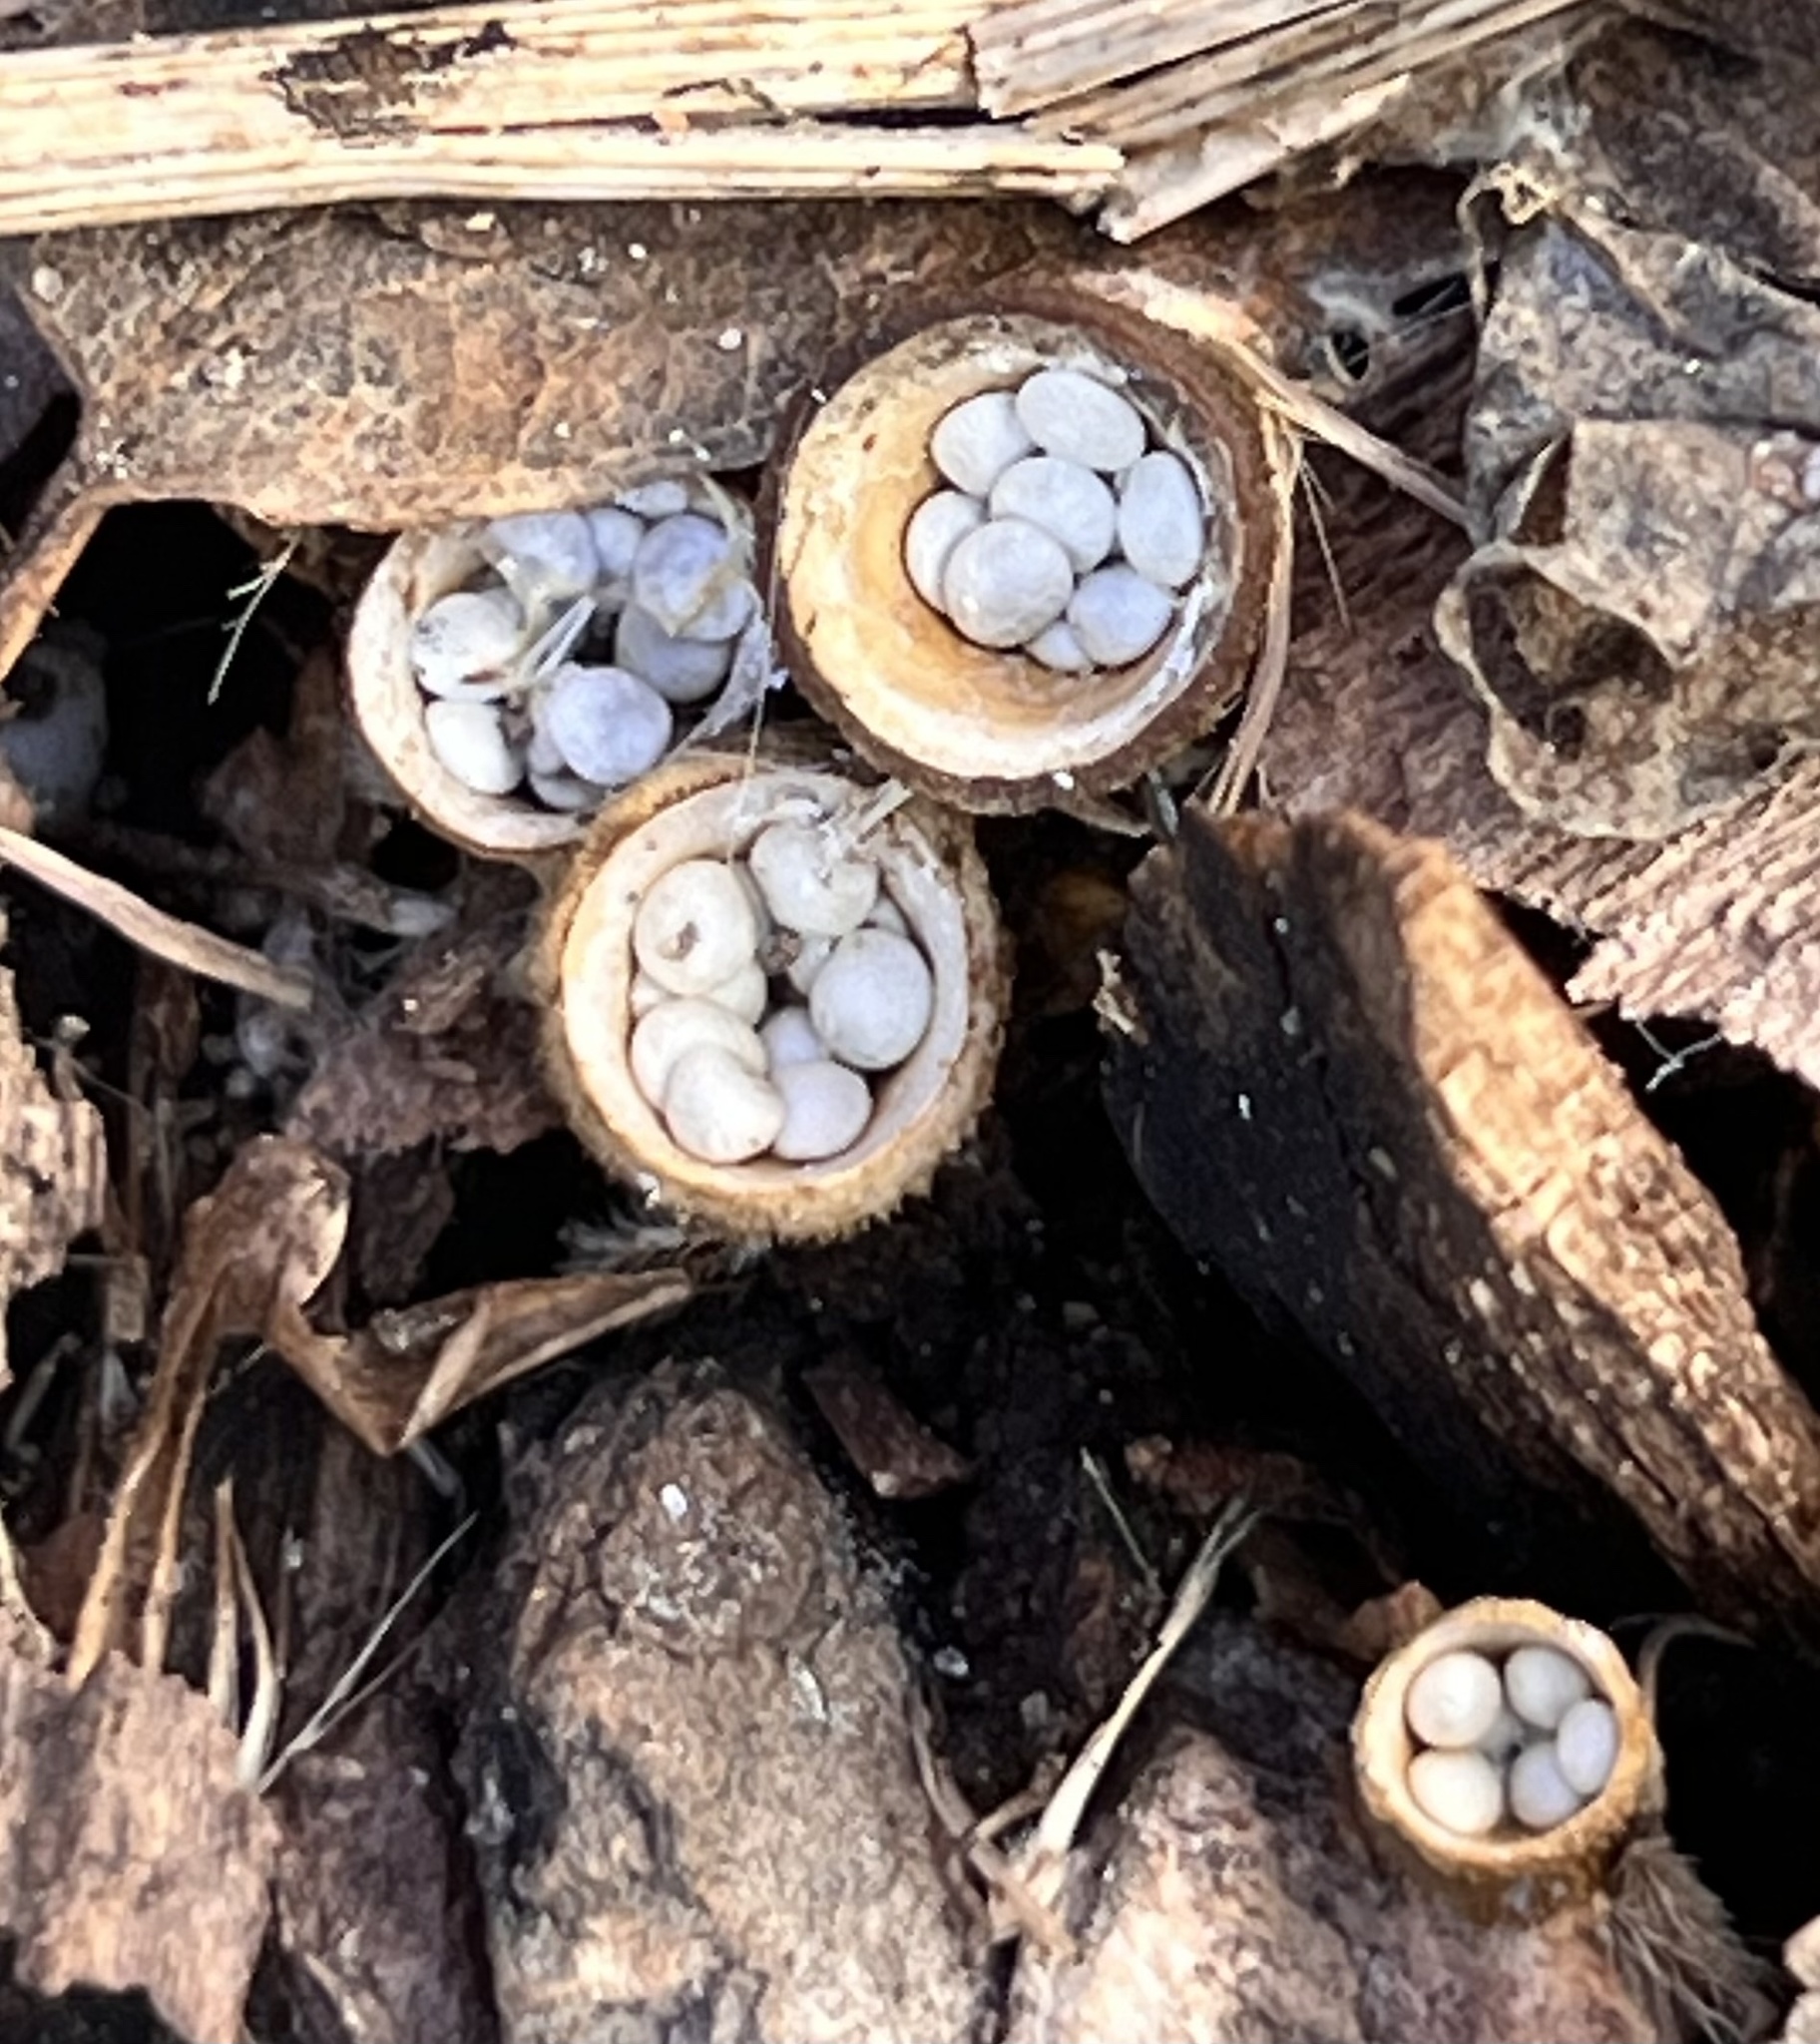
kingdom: Fungi
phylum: Basidiomycota
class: Agaricomycetes
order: Agaricales
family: Nidulariaceae
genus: Crucibulum
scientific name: Crucibulum laeve
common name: Common bird's nest
